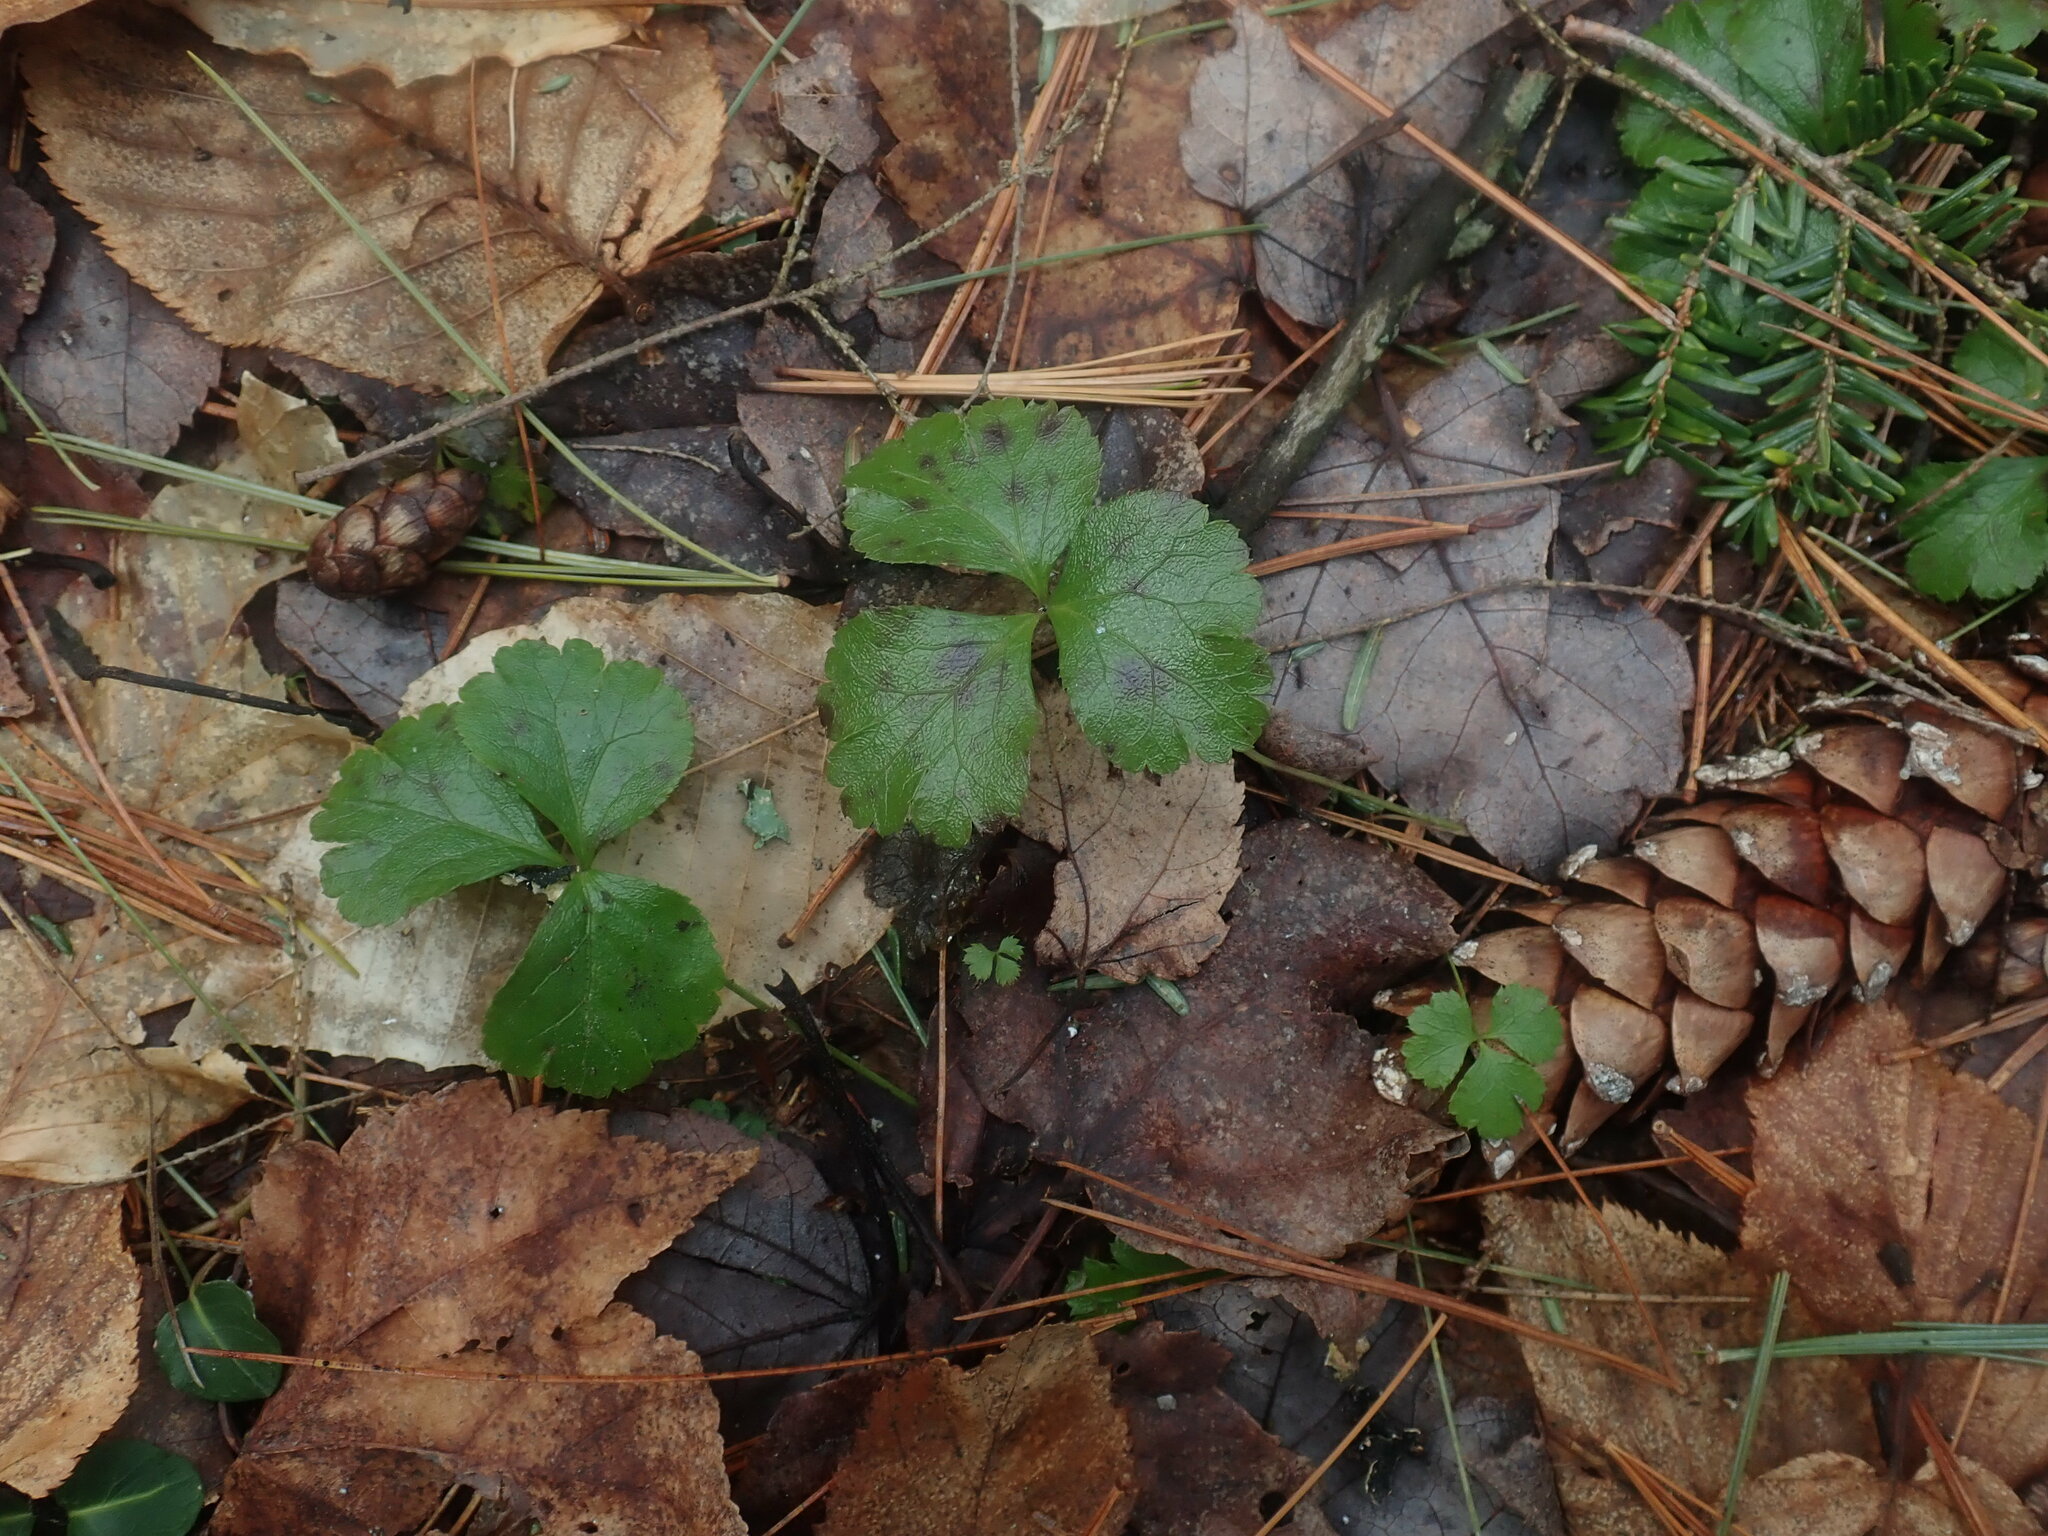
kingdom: Plantae
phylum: Tracheophyta
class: Magnoliopsida
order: Ranunculales
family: Ranunculaceae
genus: Coptis
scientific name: Coptis trifolia
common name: Canker-root
